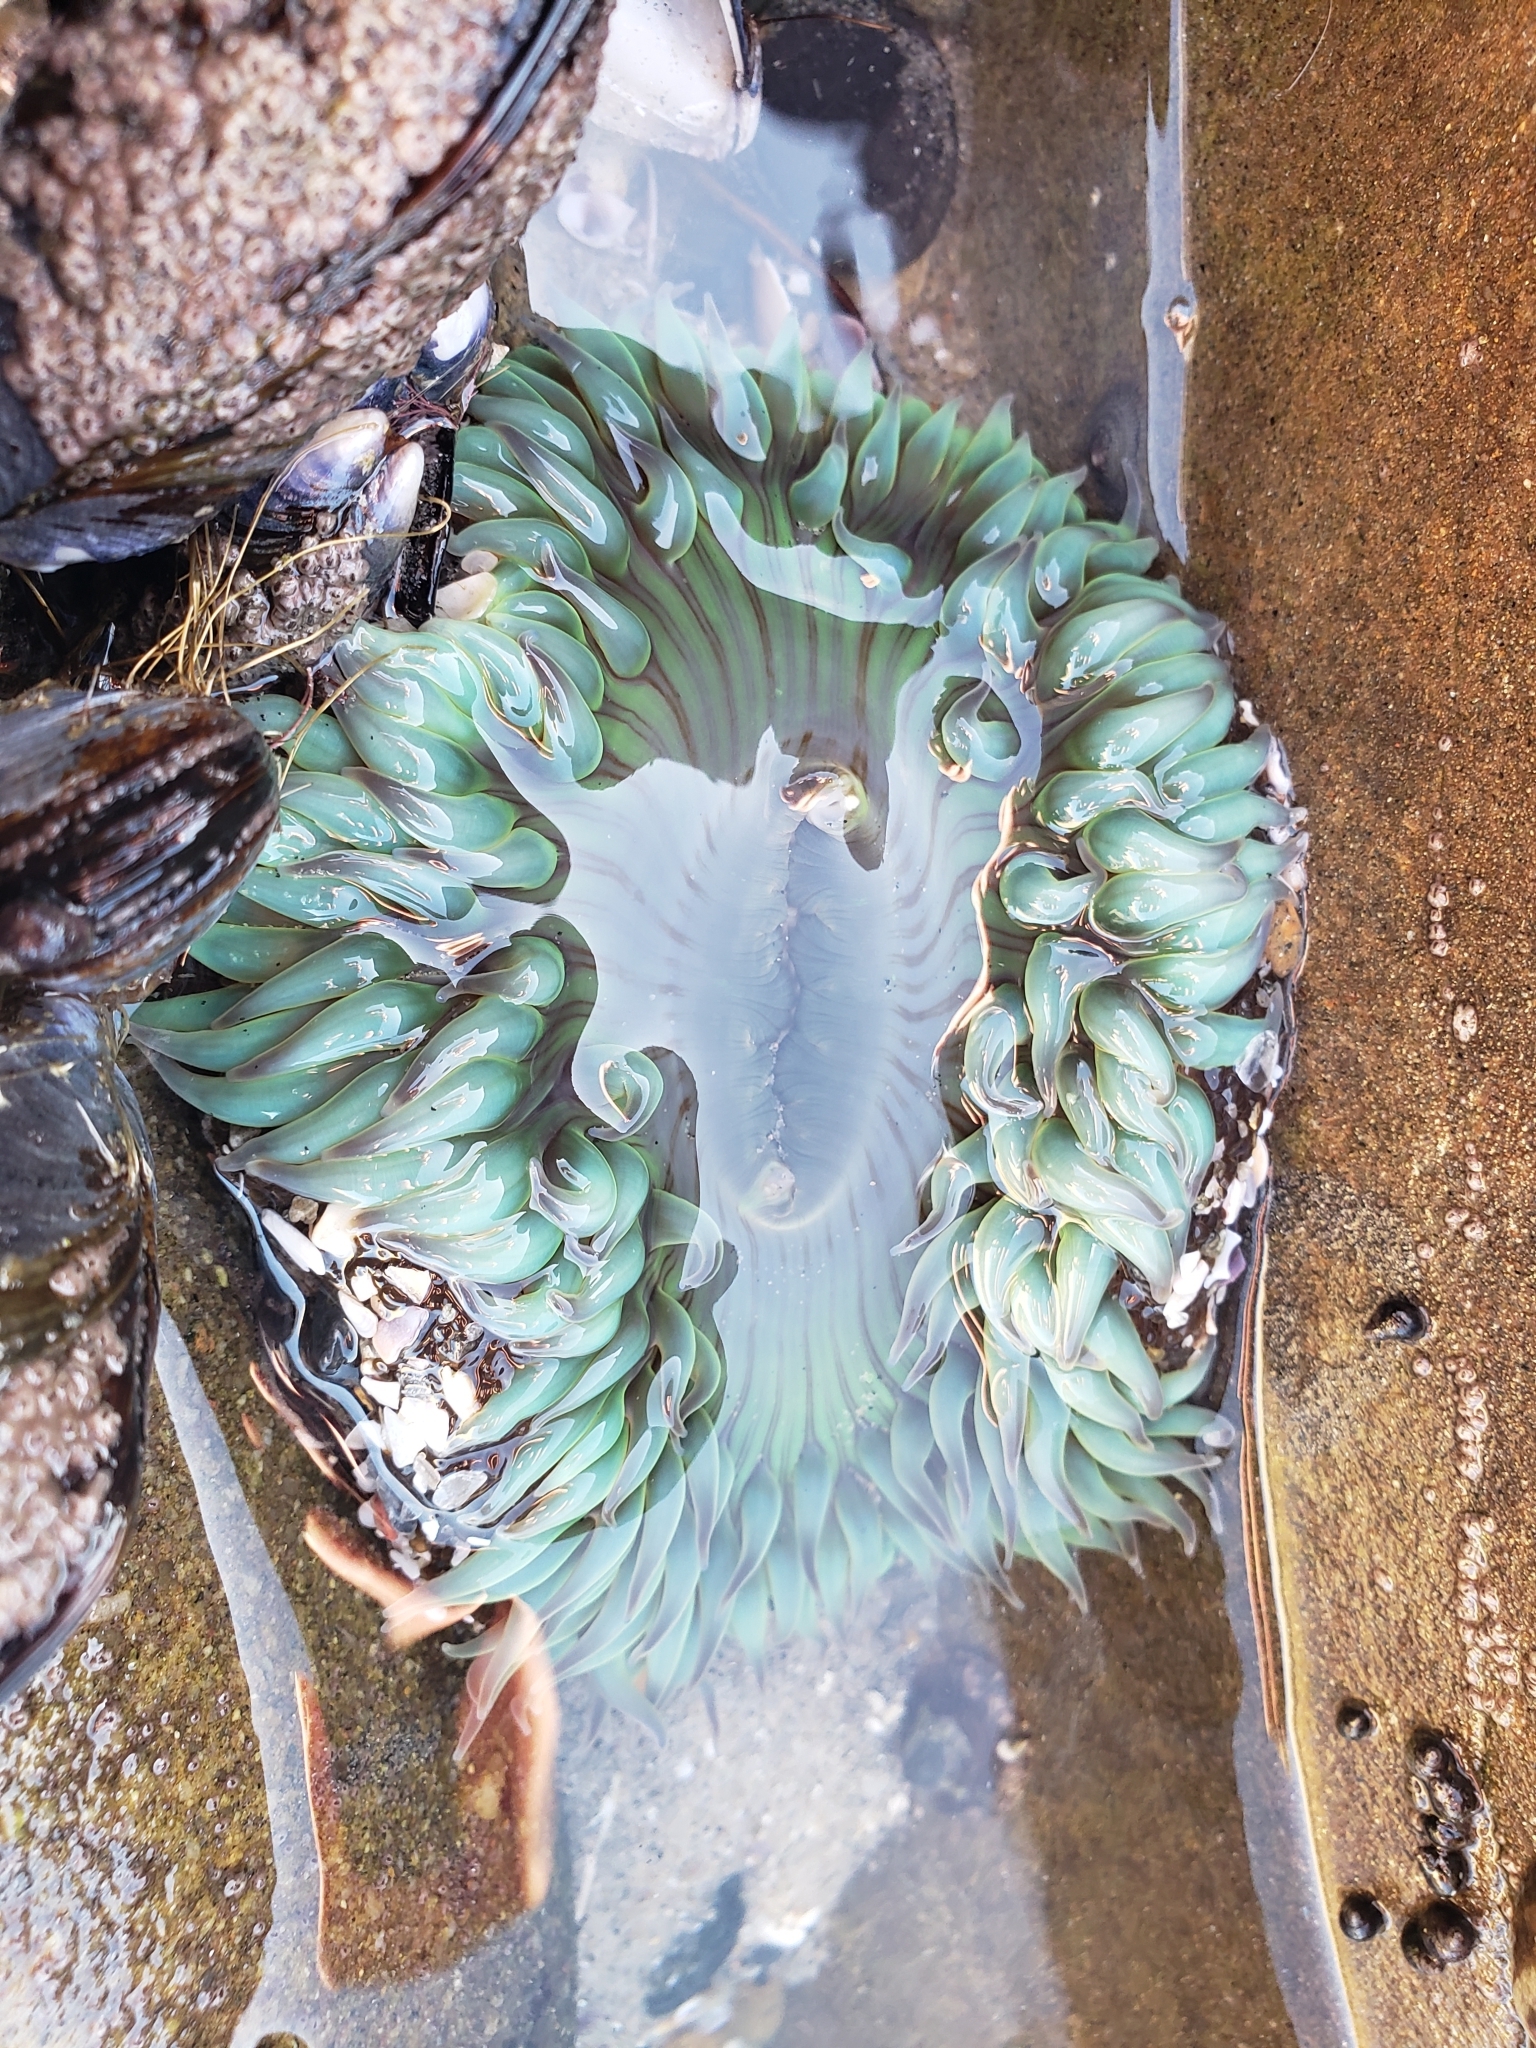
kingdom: Animalia
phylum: Cnidaria
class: Anthozoa
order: Actiniaria
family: Actiniidae
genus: Anthopleura
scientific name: Anthopleura sola
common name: Sun anemone
